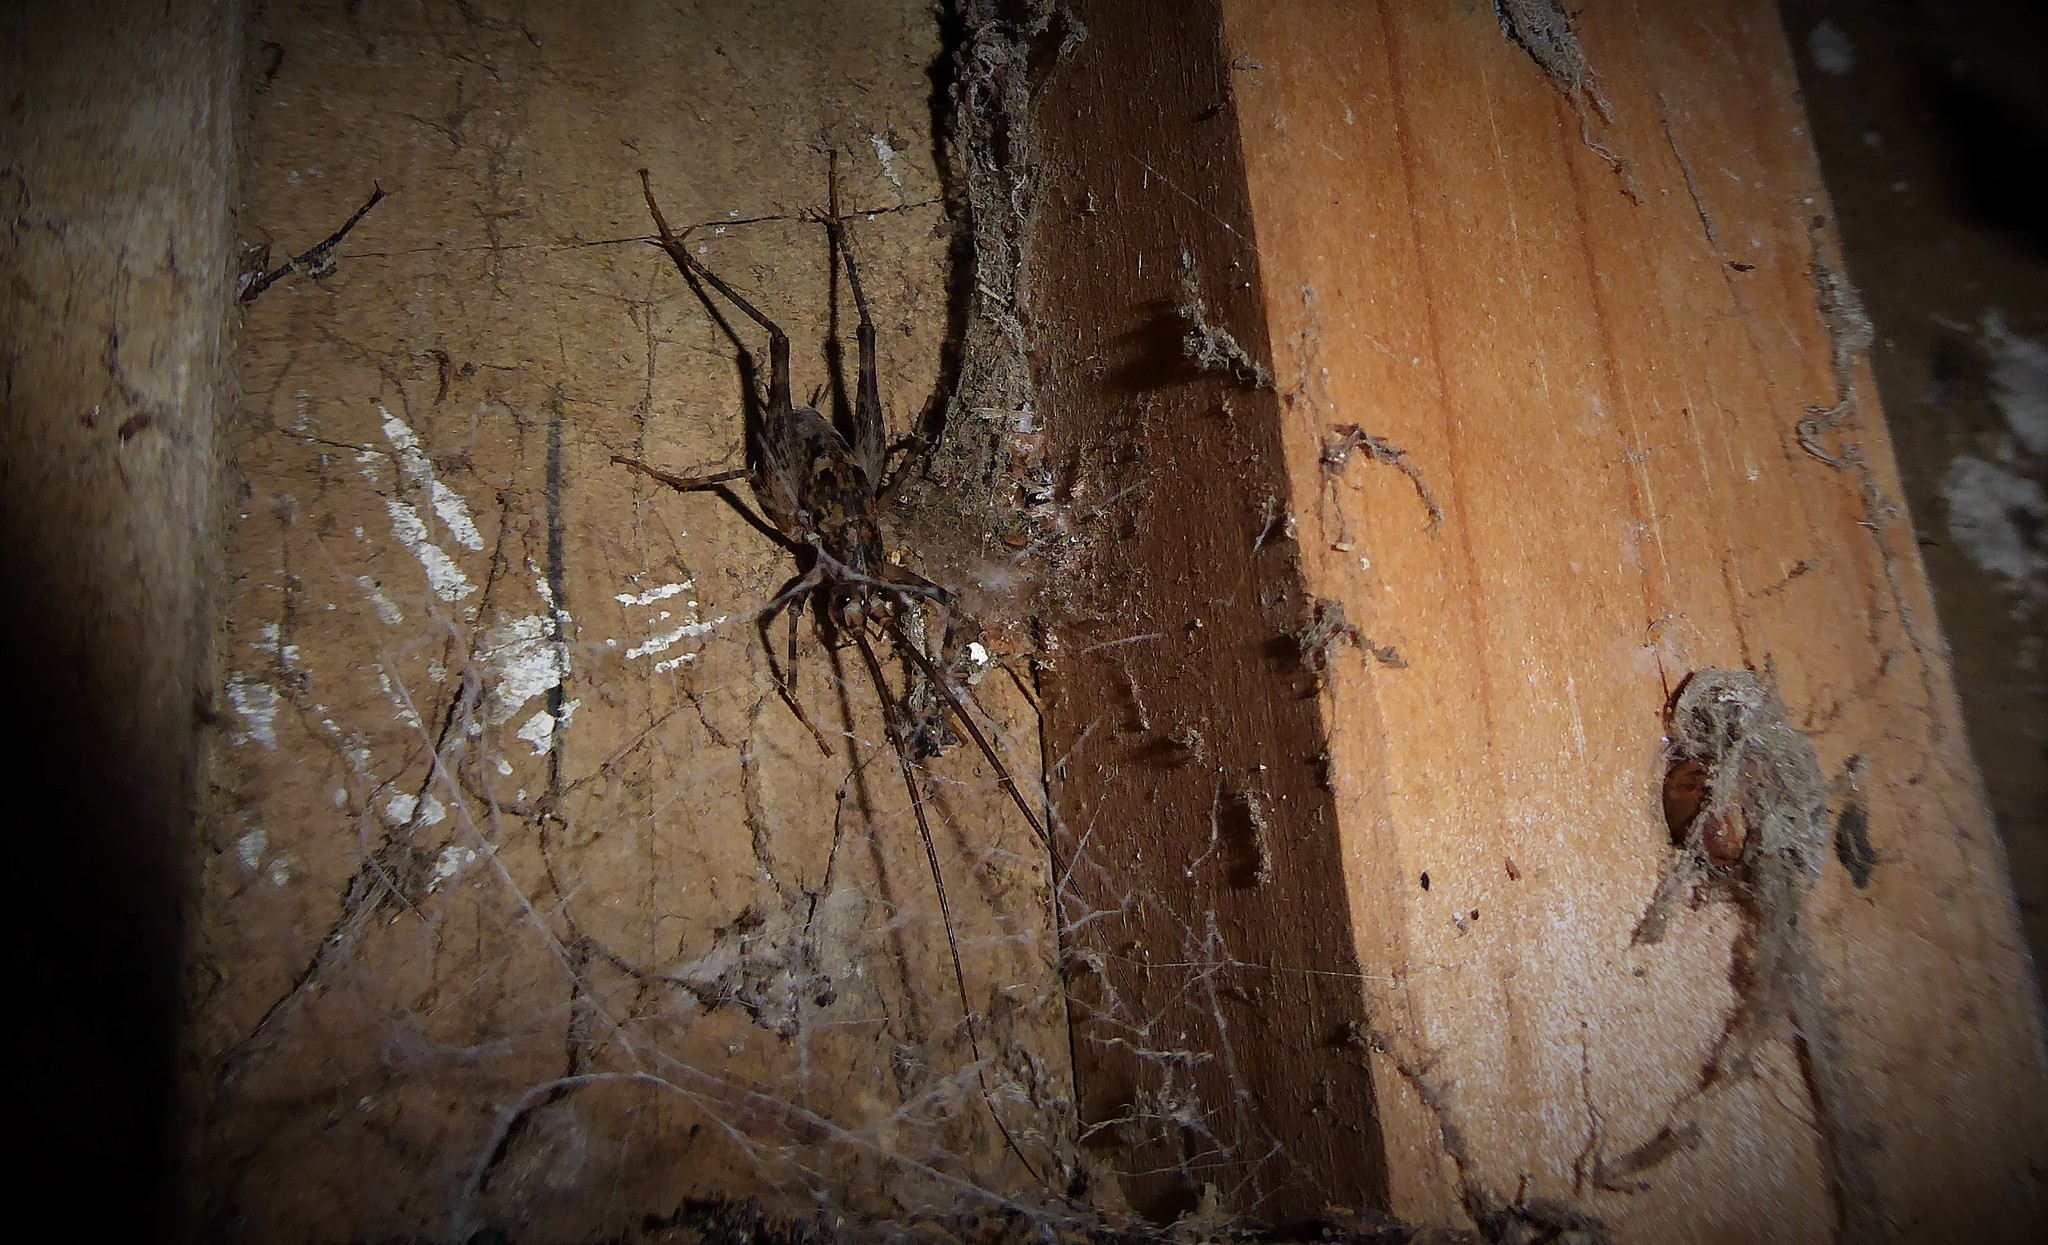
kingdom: Animalia
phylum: Arthropoda
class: Insecta
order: Orthoptera
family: Rhaphidophoridae
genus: Pleioplectron
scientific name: Pleioplectron simplex
